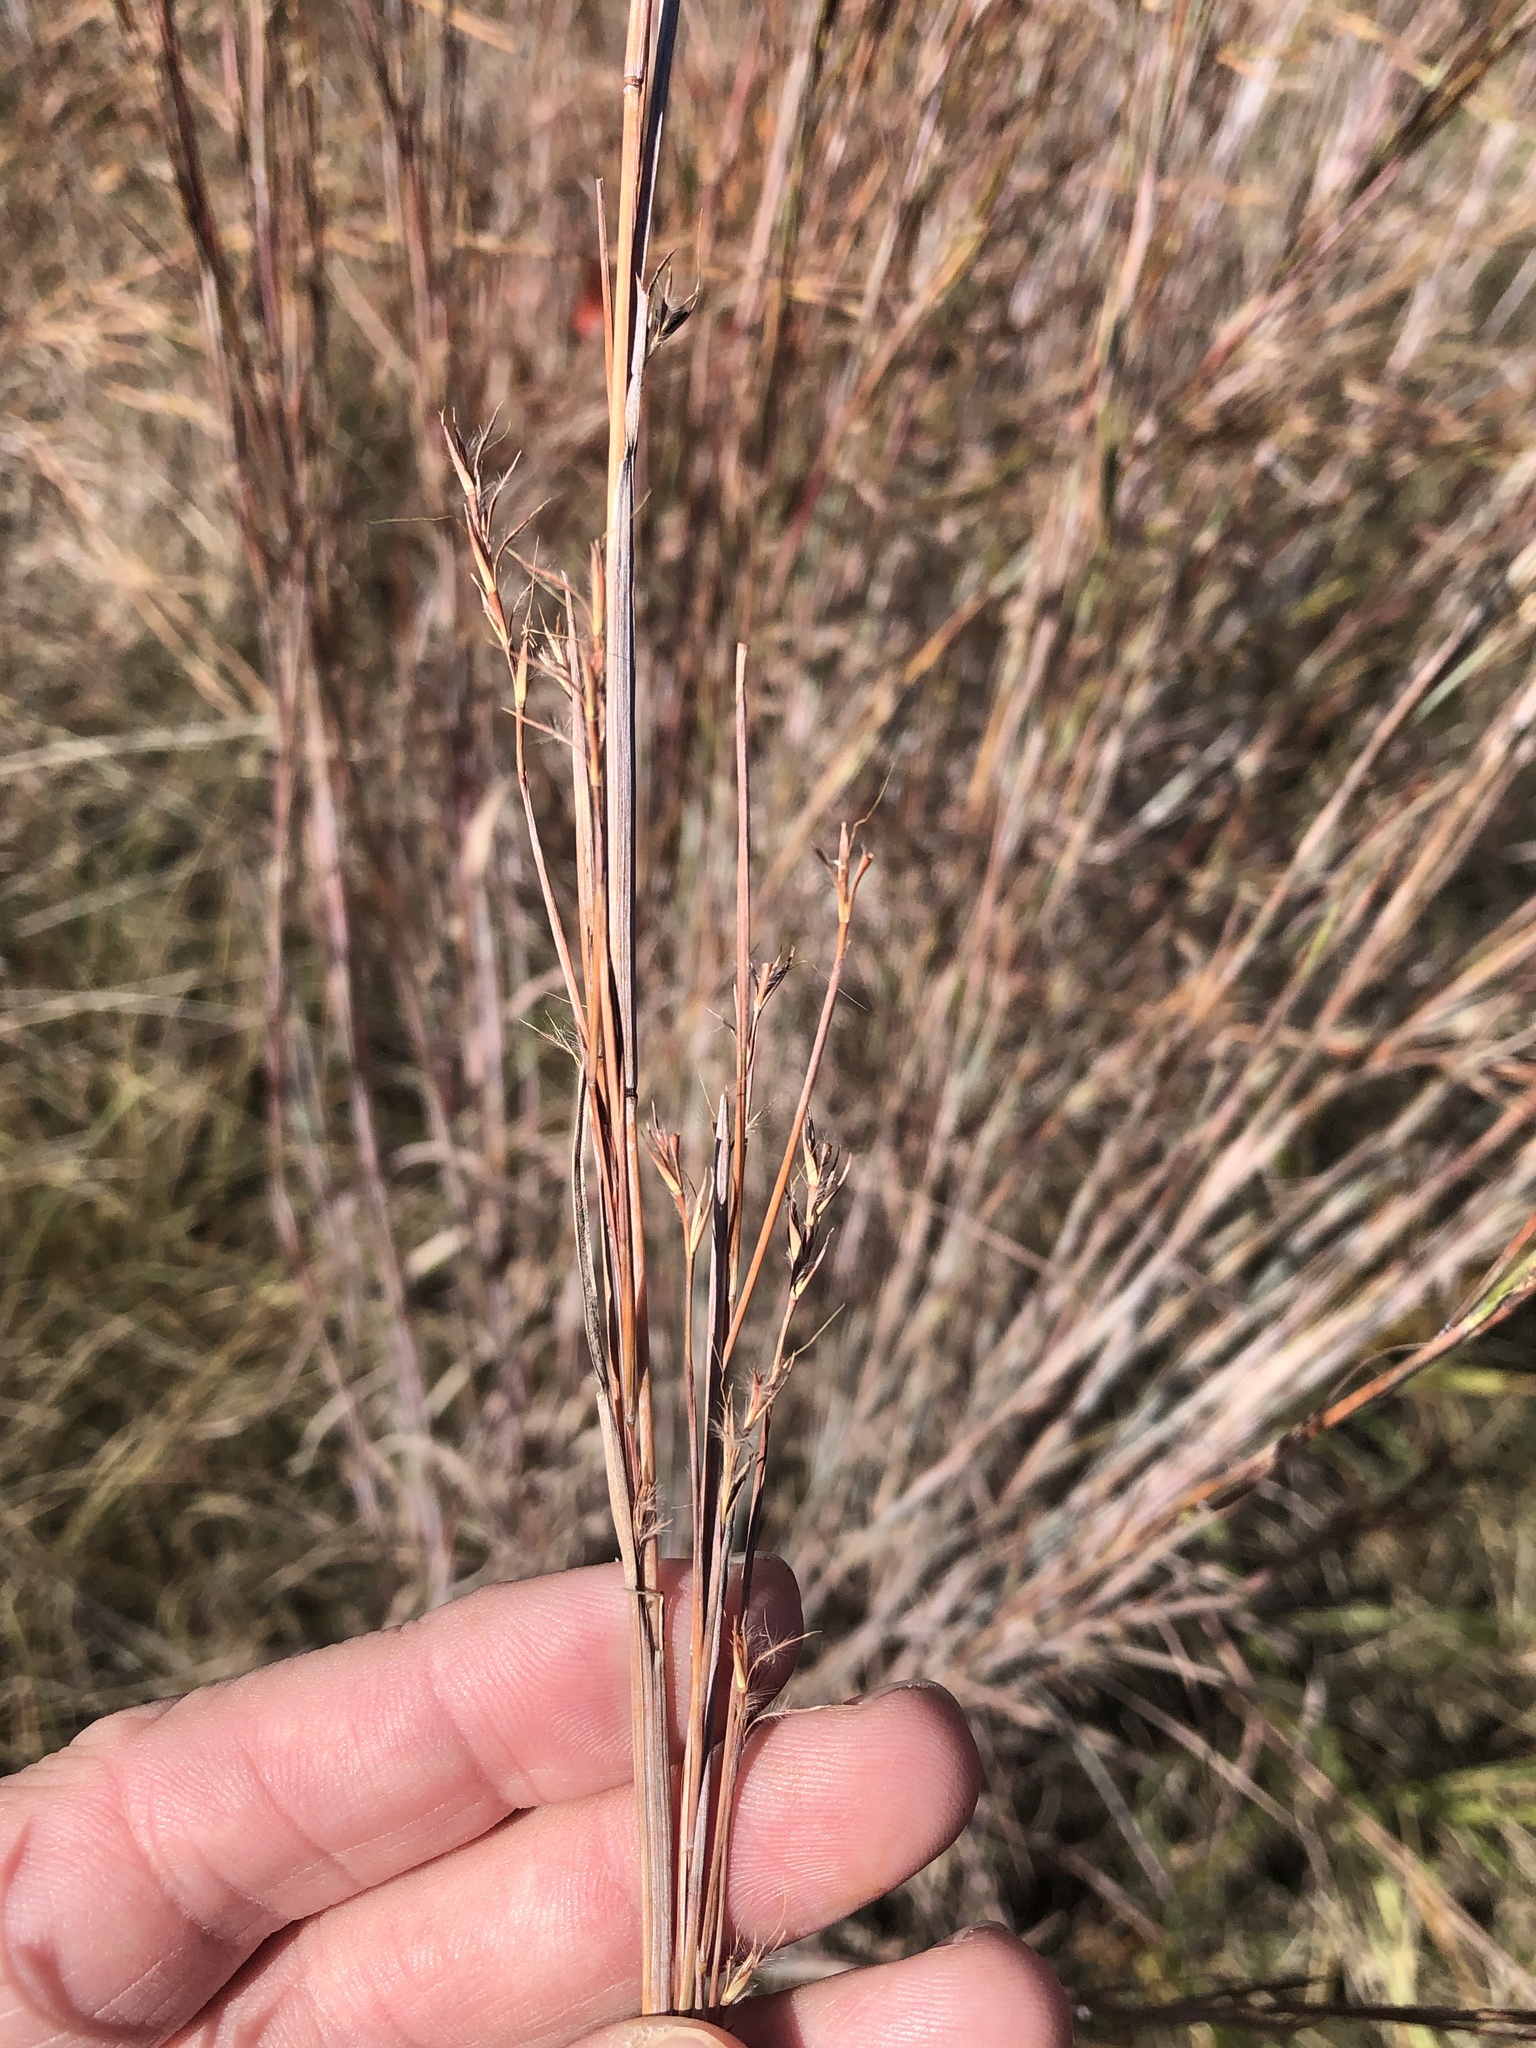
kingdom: Plantae
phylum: Tracheophyta
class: Liliopsida
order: Poales
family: Poaceae
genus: Schizachyrium
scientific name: Schizachyrium scoparium
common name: Little bluestem
